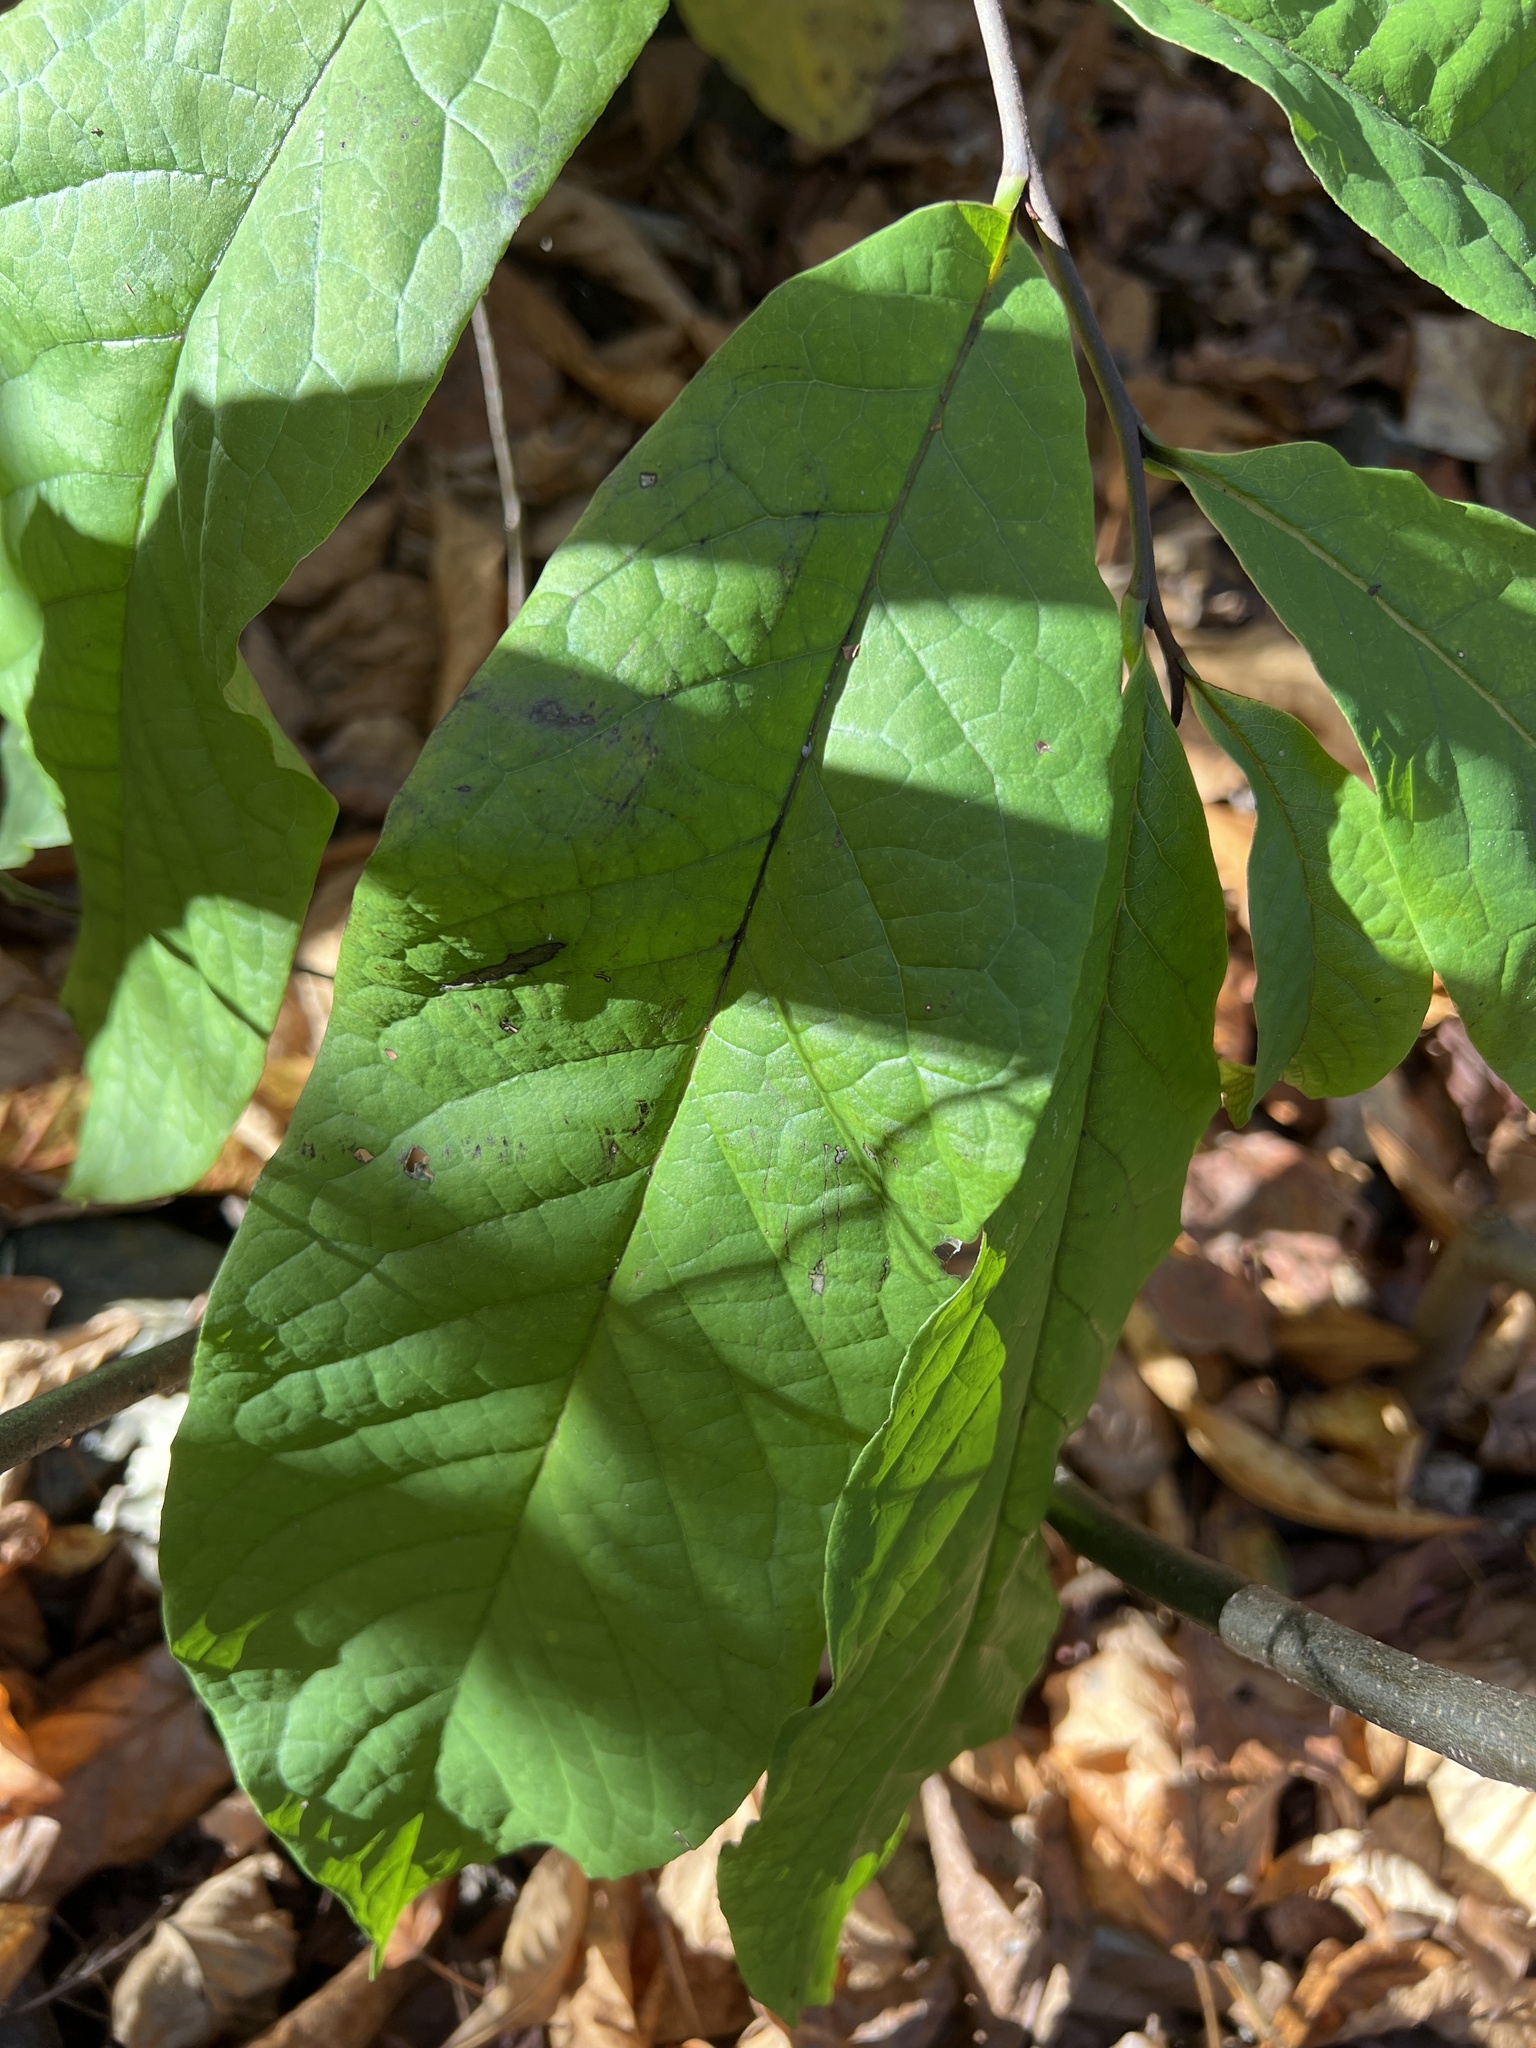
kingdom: Plantae
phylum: Tracheophyta
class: Magnoliopsida
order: Magnoliales
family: Annonaceae
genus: Asimina
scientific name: Asimina triloba
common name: Dog-banana
